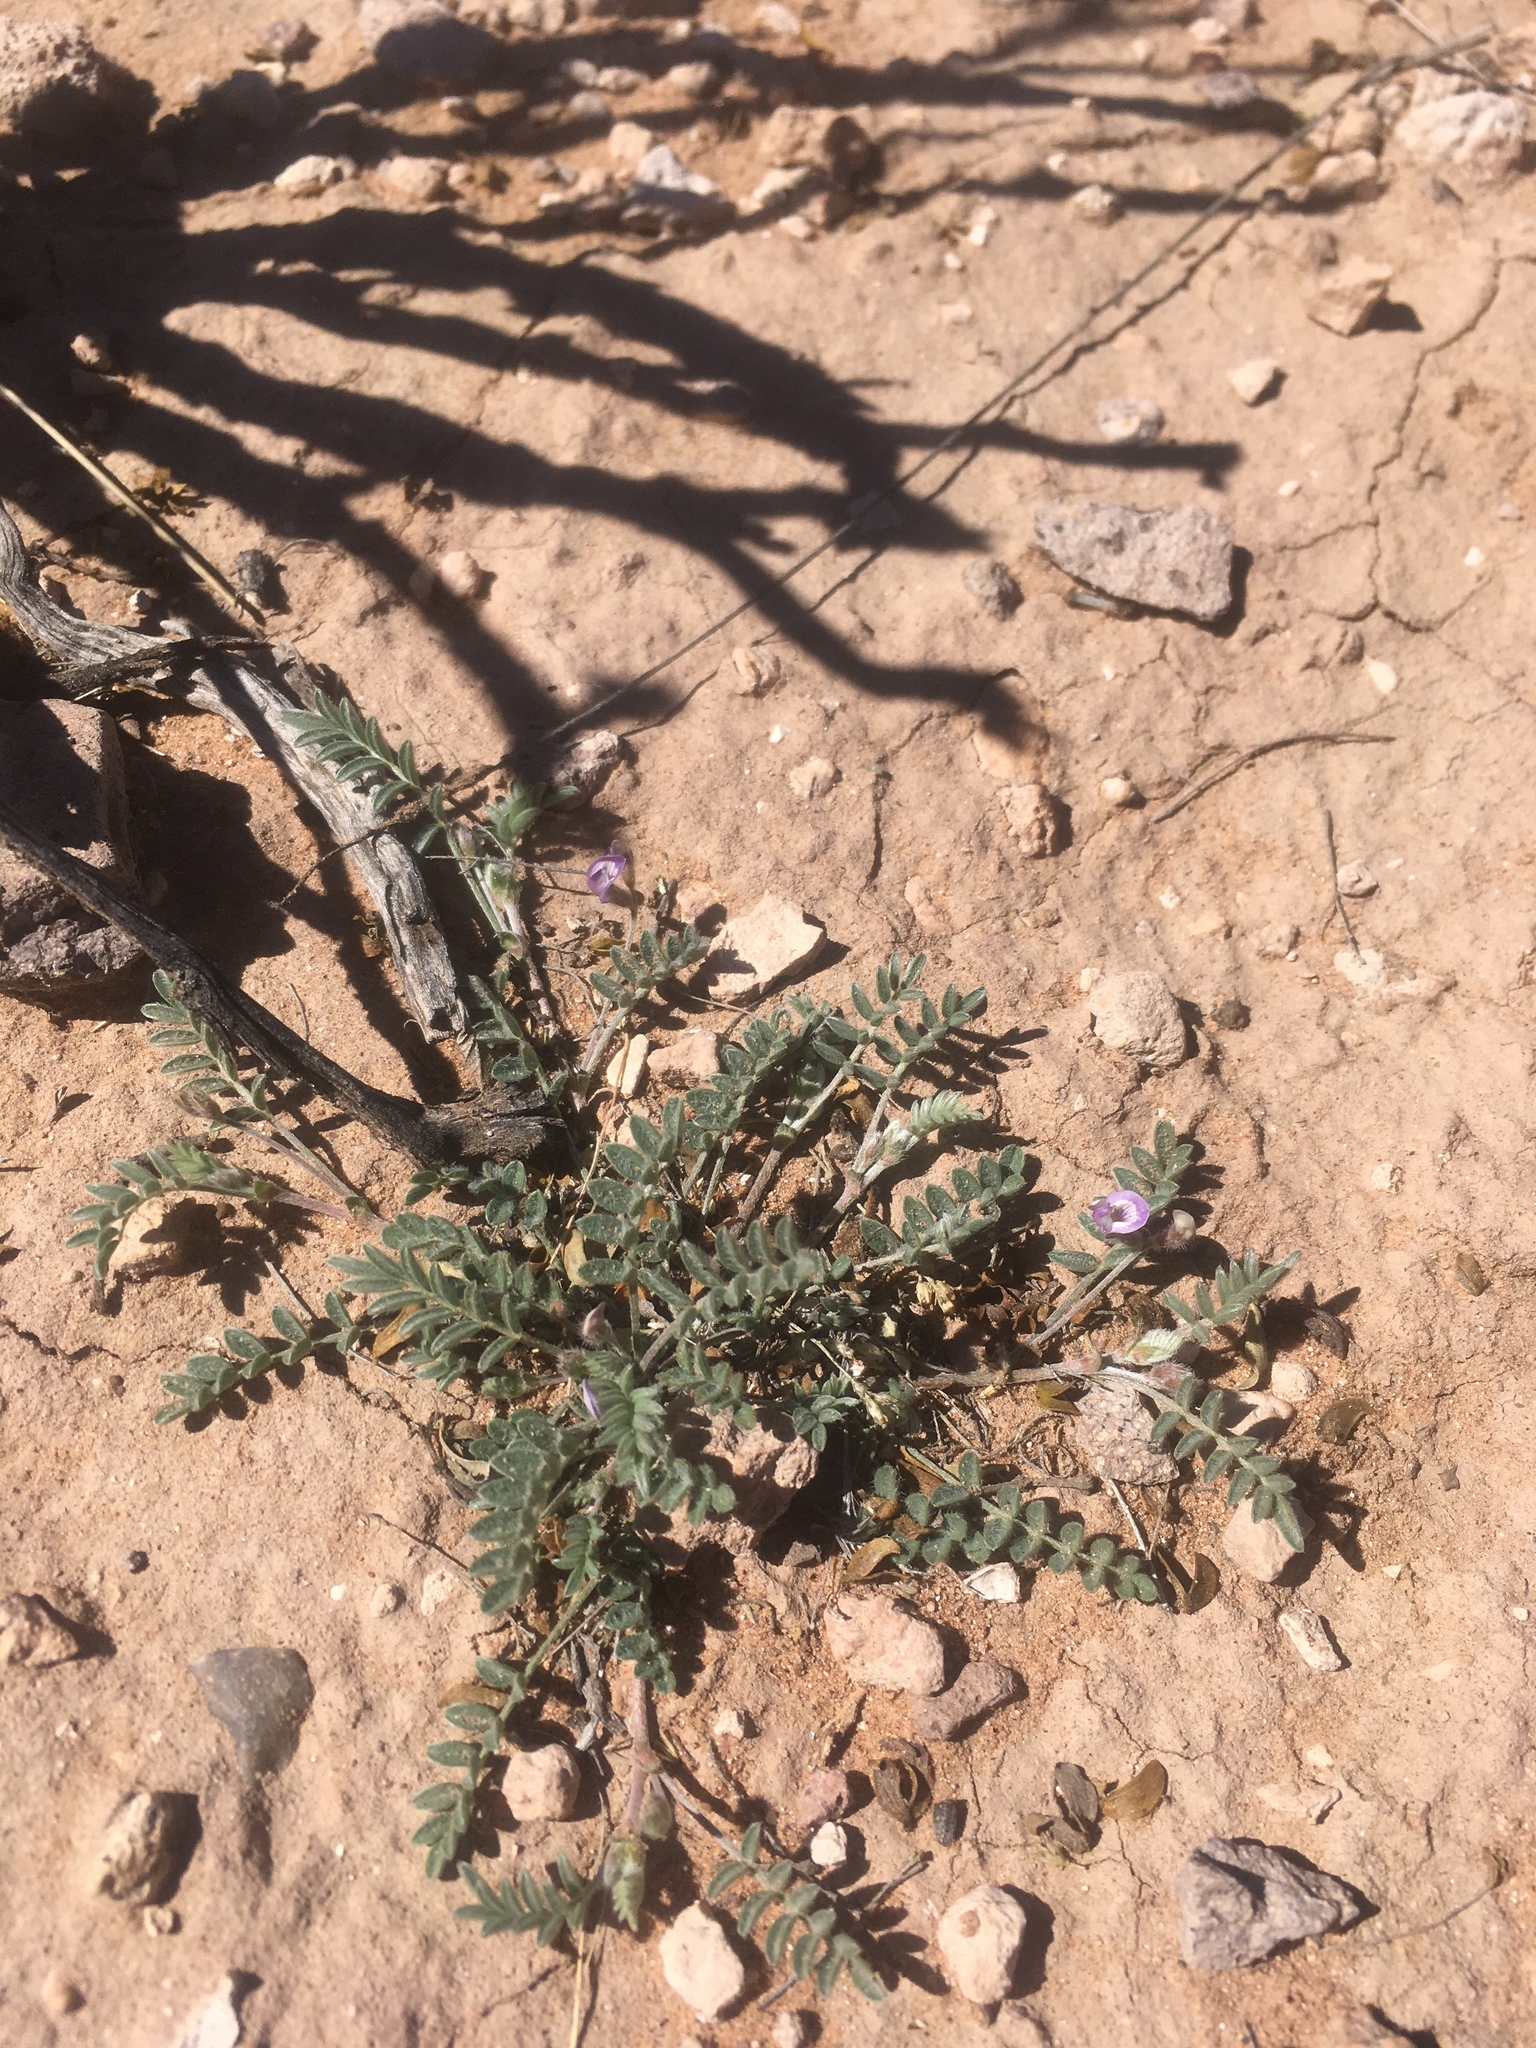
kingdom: Plantae
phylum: Tracheophyta
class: Magnoliopsida
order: Fabales
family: Fabaceae
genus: Astragalus
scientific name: Astragalus nuttallianus
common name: Smallflowered milkvetch
